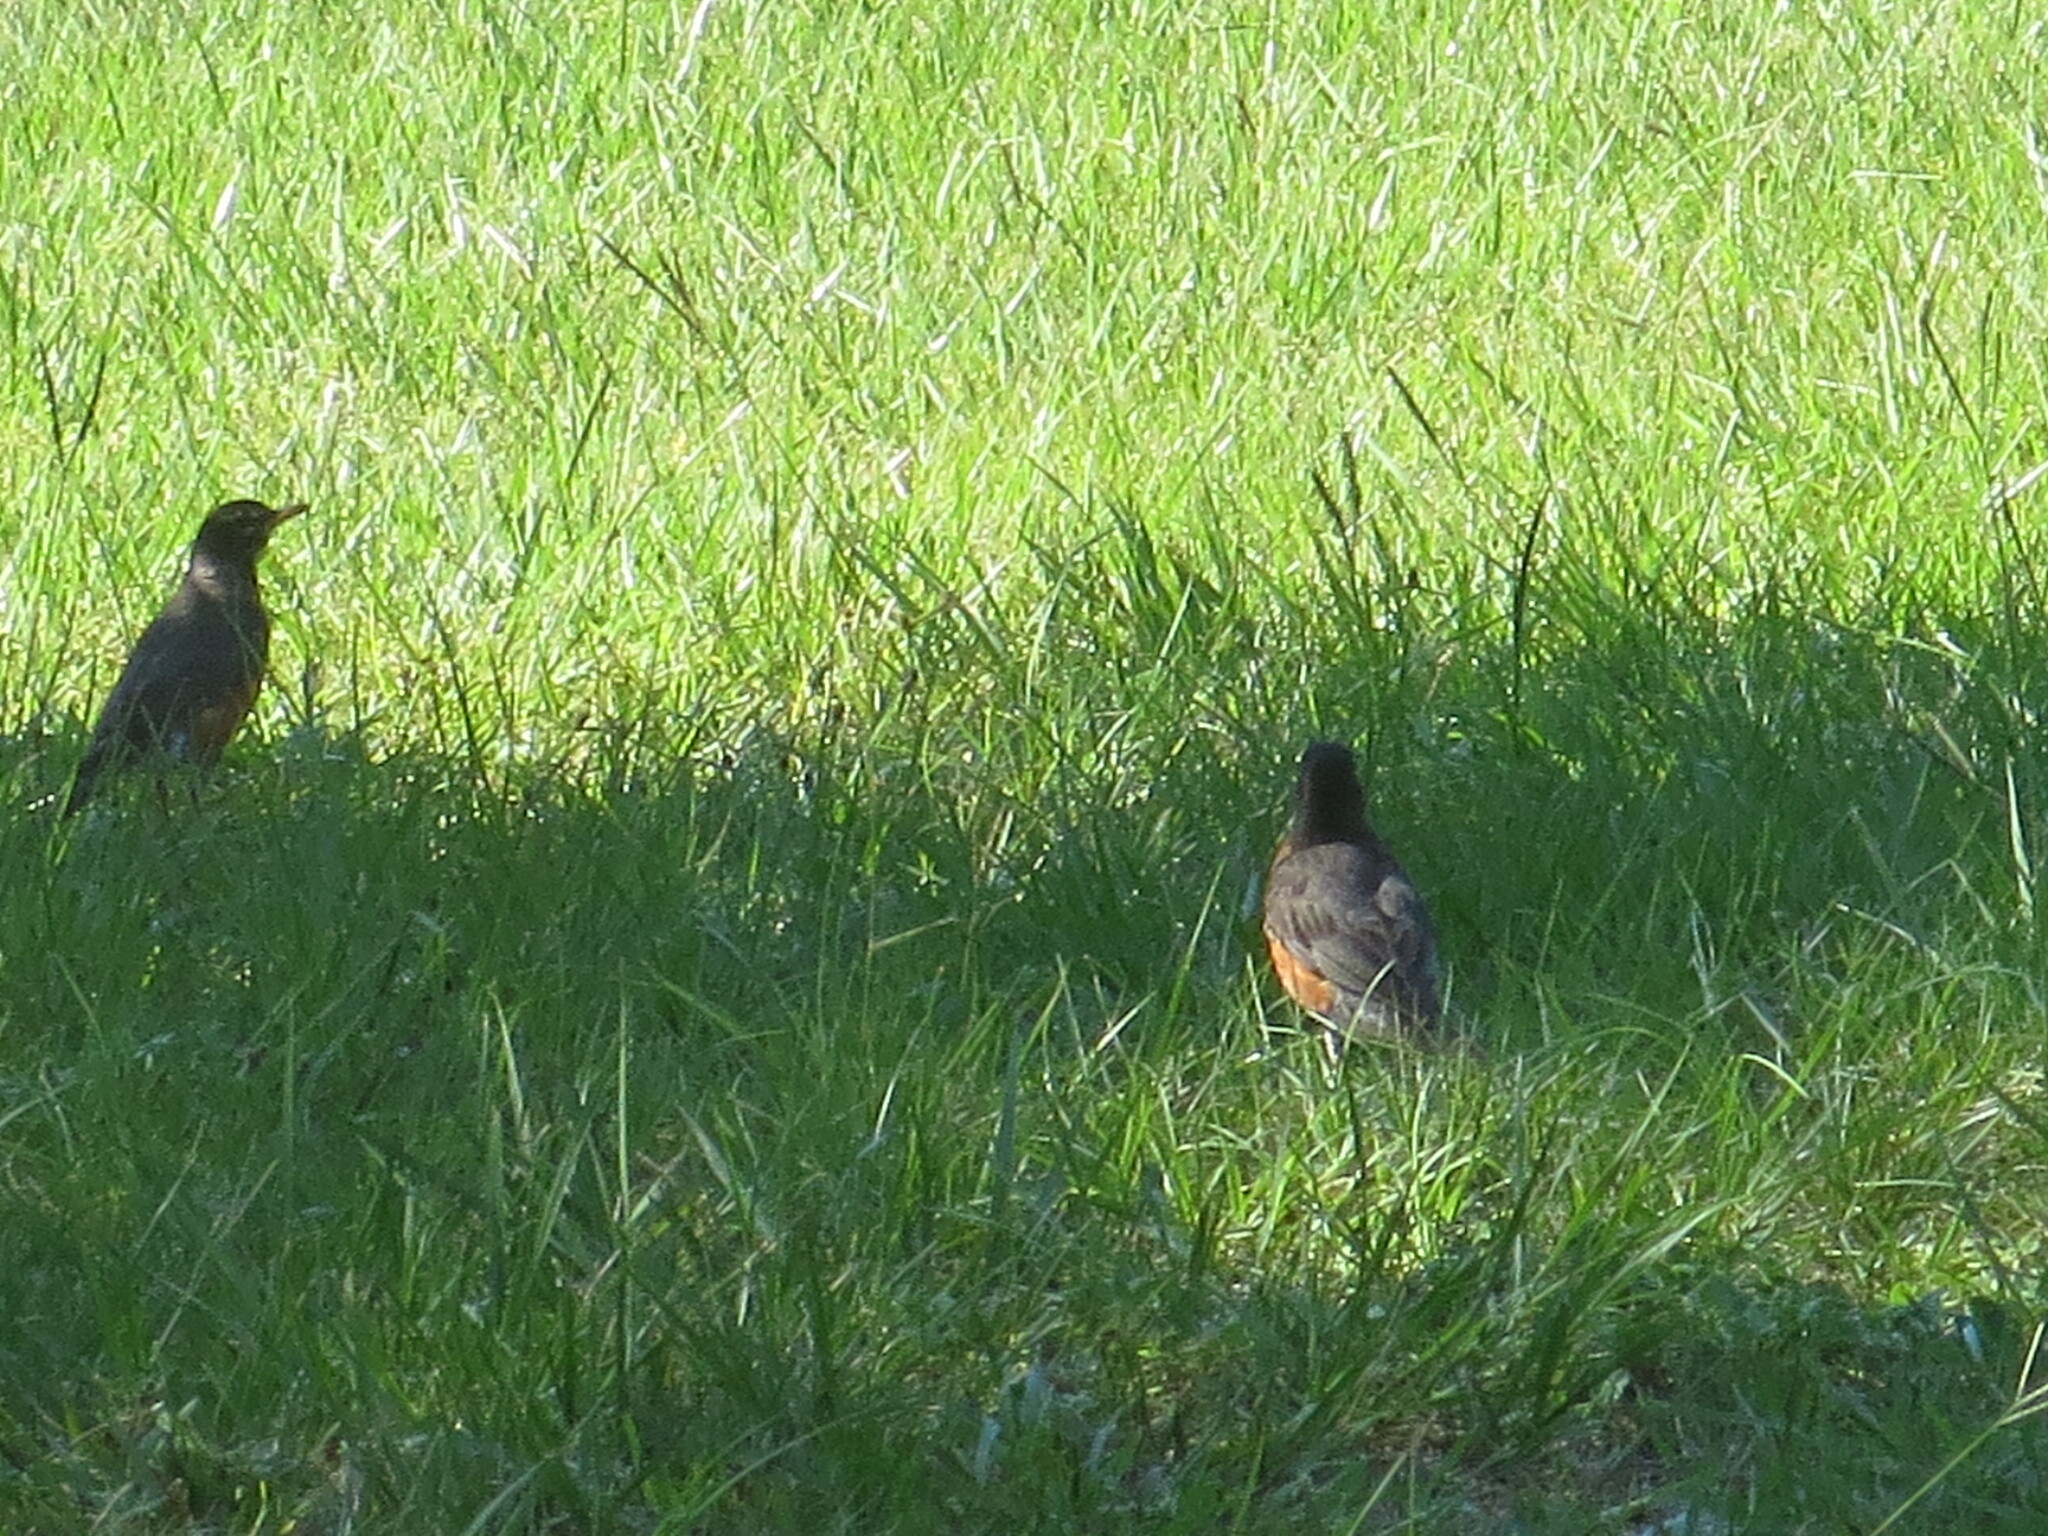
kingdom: Animalia
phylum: Chordata
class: Aves
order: Passeriformes
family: Turdidae
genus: Turdus
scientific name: Turdus migratorius
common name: American robin
